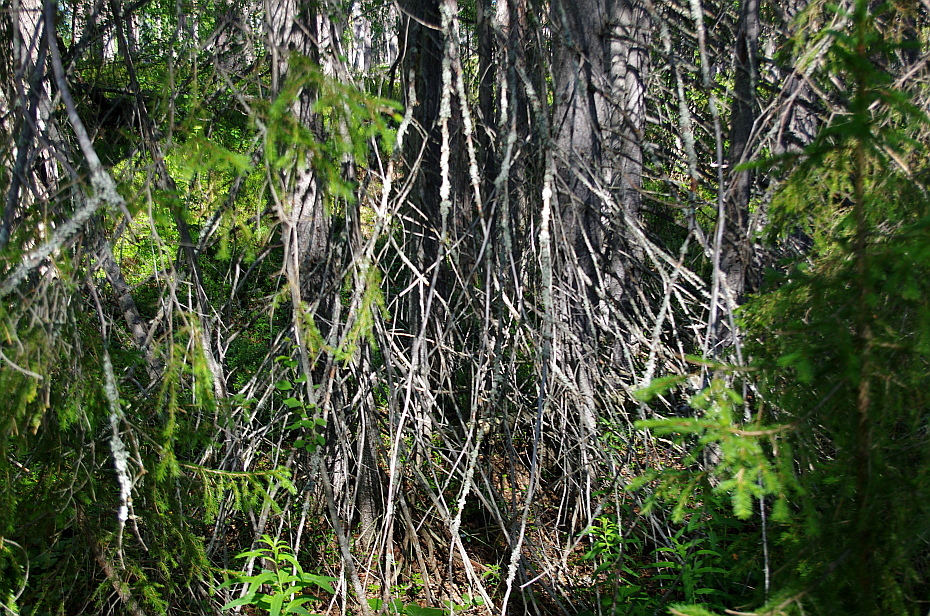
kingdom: Plantae
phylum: Tracheophyta
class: Pinopsida
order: Pinales
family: Pinaceae
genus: Picea
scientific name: Picea fennica
